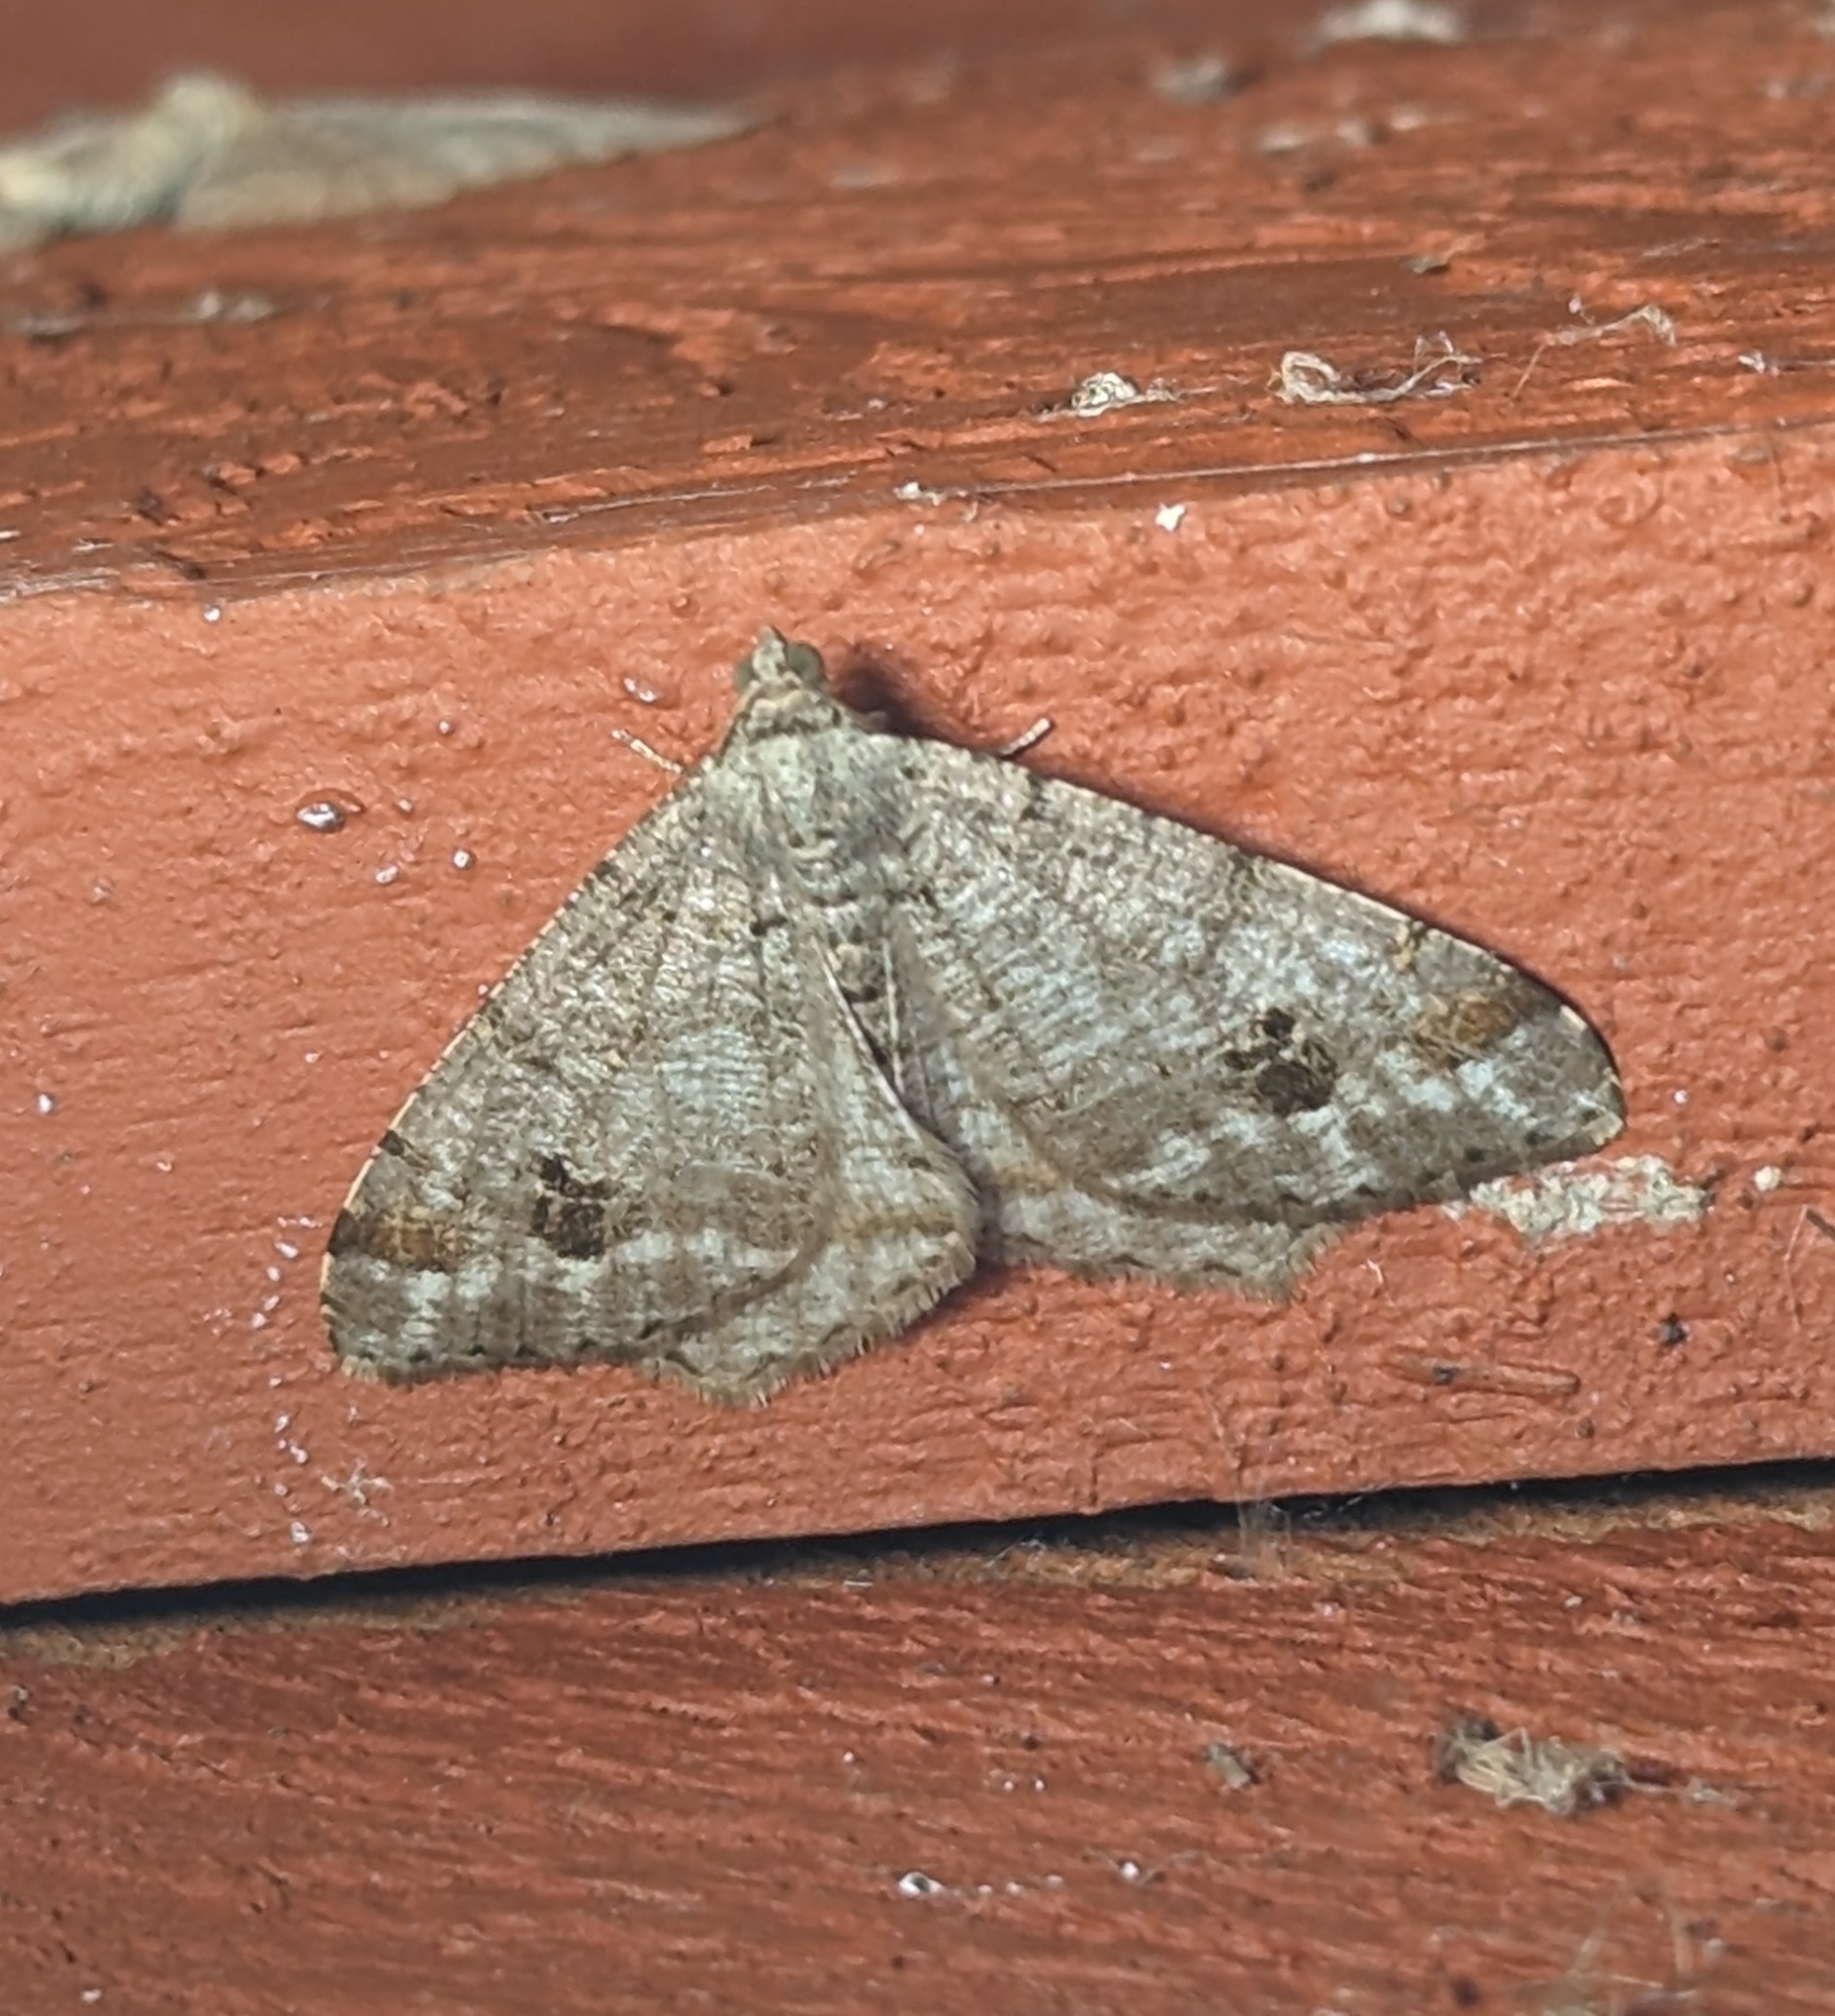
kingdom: Animalia
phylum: Arthropoda
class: Insecta
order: Lepidoptera
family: Geometridae
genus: Macaria
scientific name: Macaria signaria
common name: Dusky peacock
